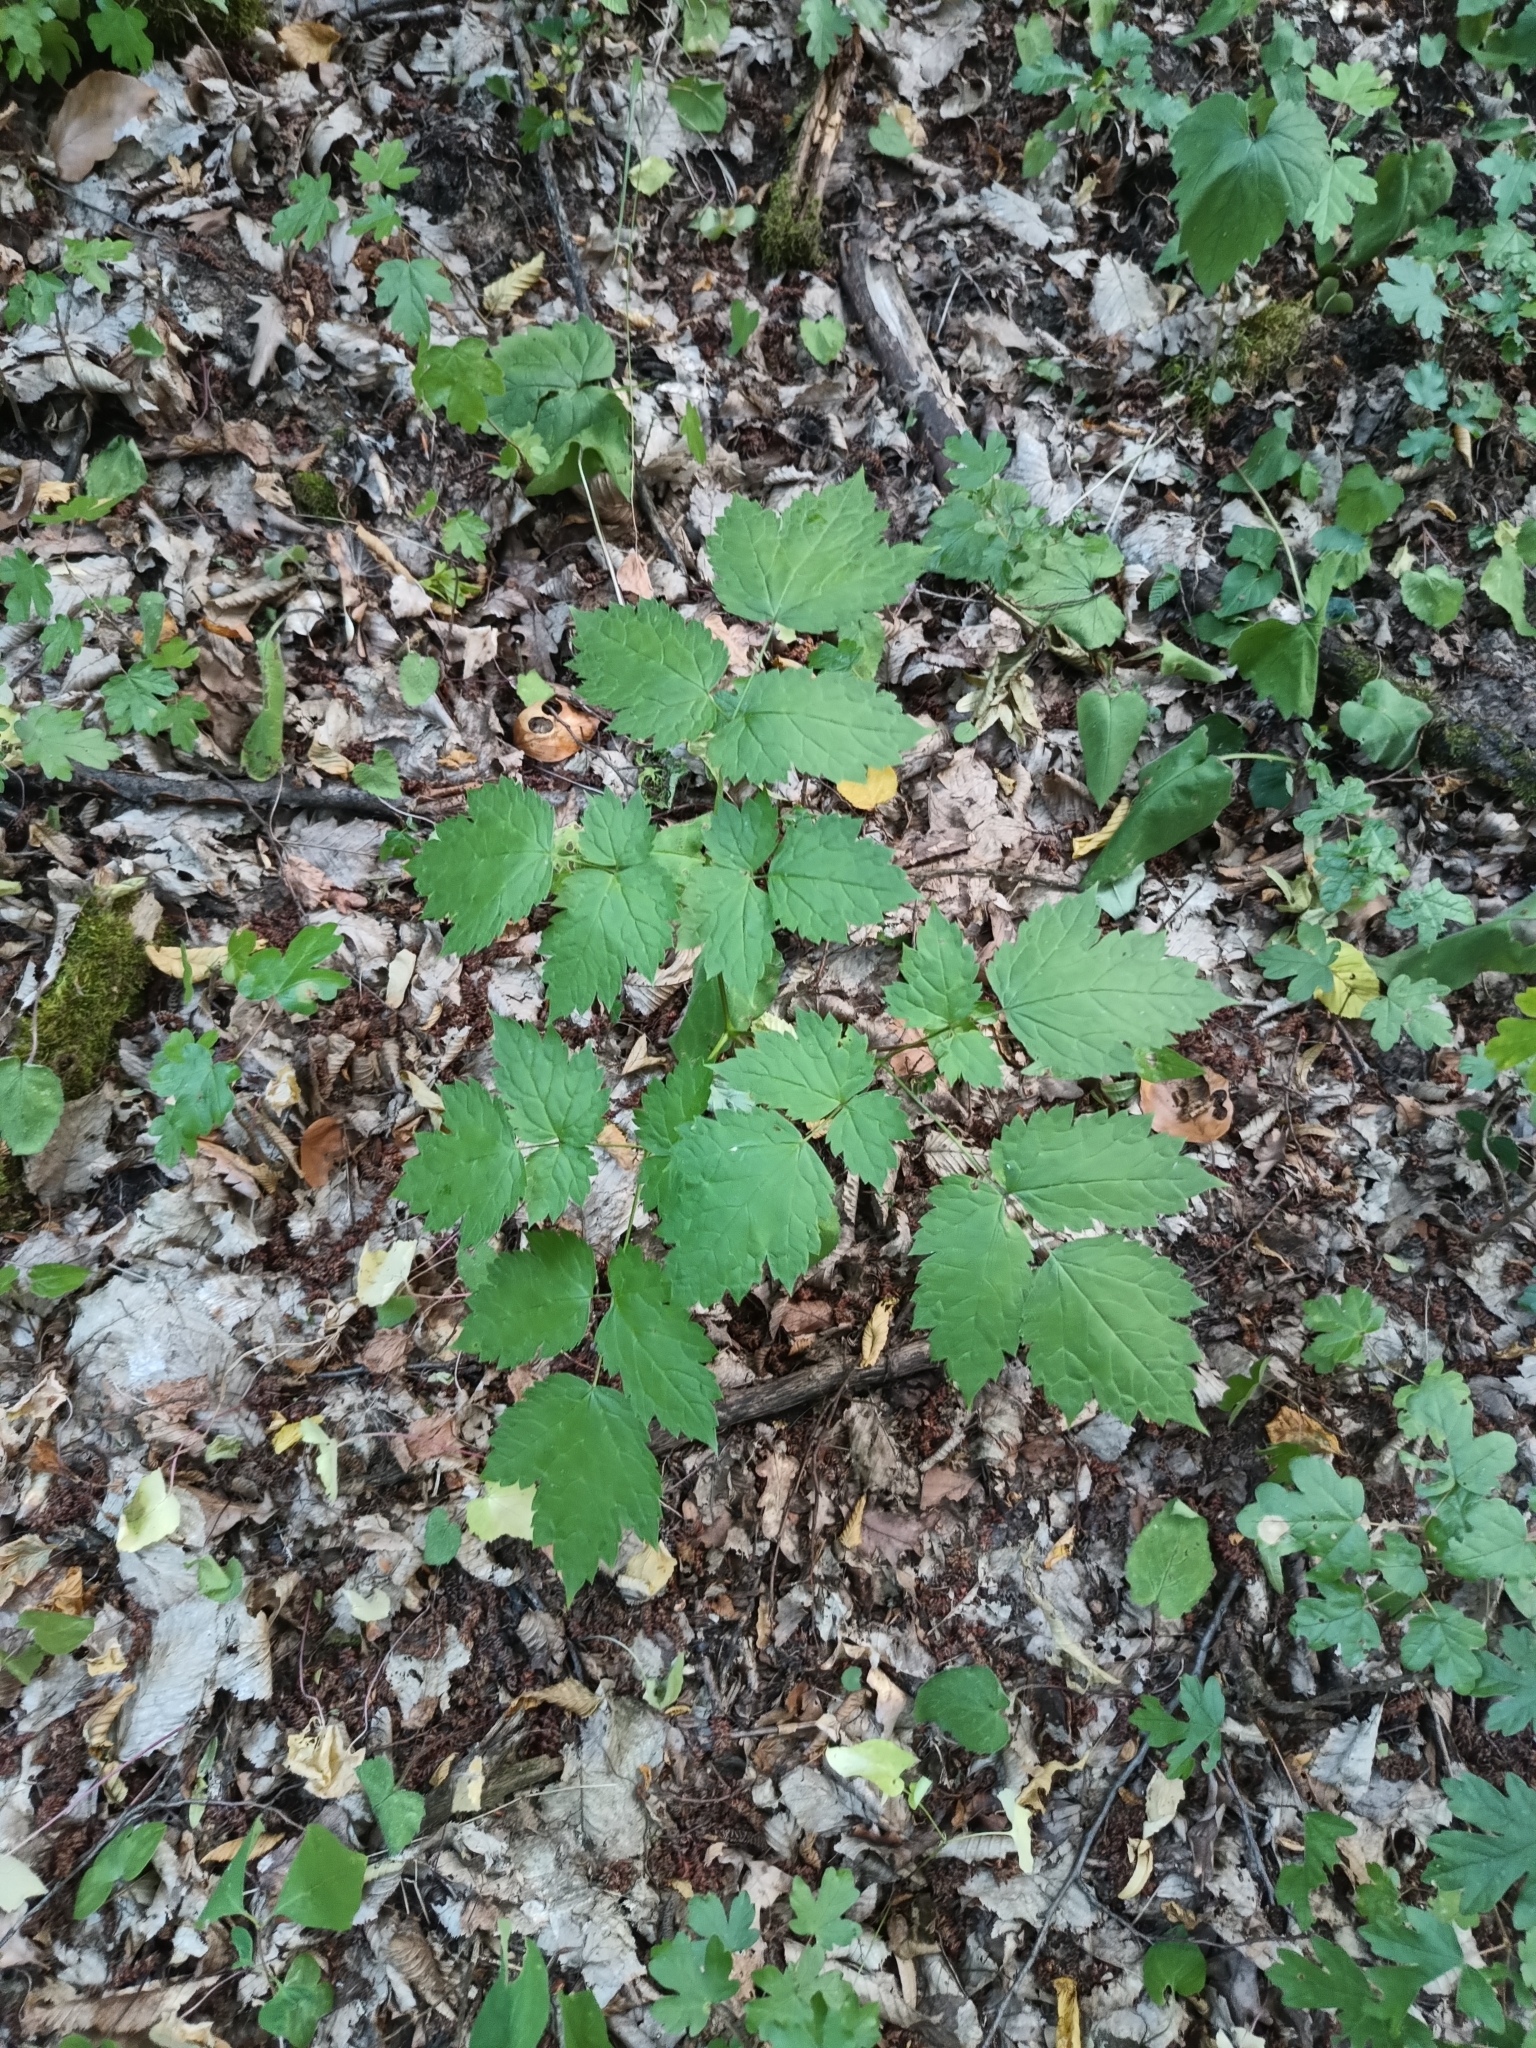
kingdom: Plantae
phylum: Tracheophyta
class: Magnoliopsida
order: Ranunculales
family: Ranunculaceae
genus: Actaea
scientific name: Actaea spicata
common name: Baneberry
